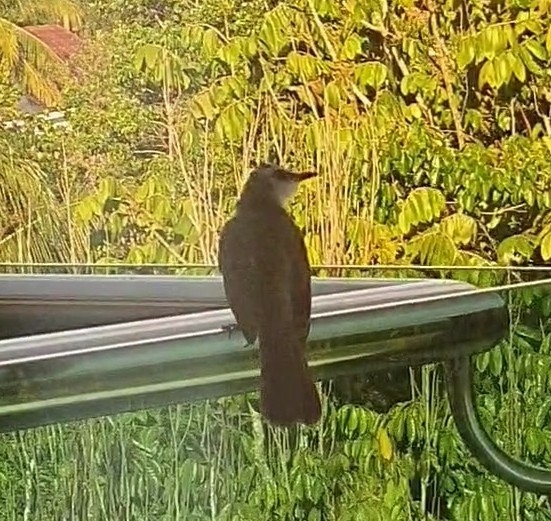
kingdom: Animalia
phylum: Chordata
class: Aves
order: Passeriformes
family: Pycnonotidae
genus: Pycnonotus
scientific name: Pycnonotus goiavier
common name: Yellow-vented bulbul
